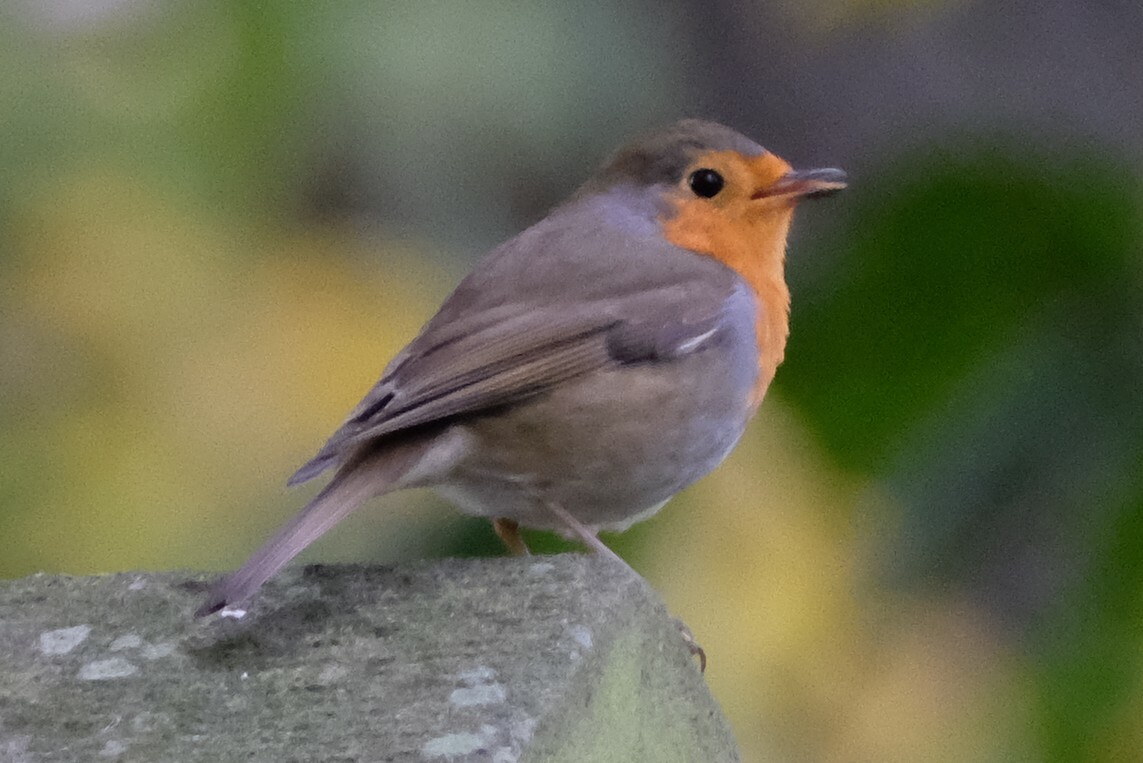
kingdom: Animalia
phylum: Chordata
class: Aves
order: Passeriformes
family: Muscicapidae
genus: Erithacus
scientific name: Erithacus rubecula
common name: European robin
